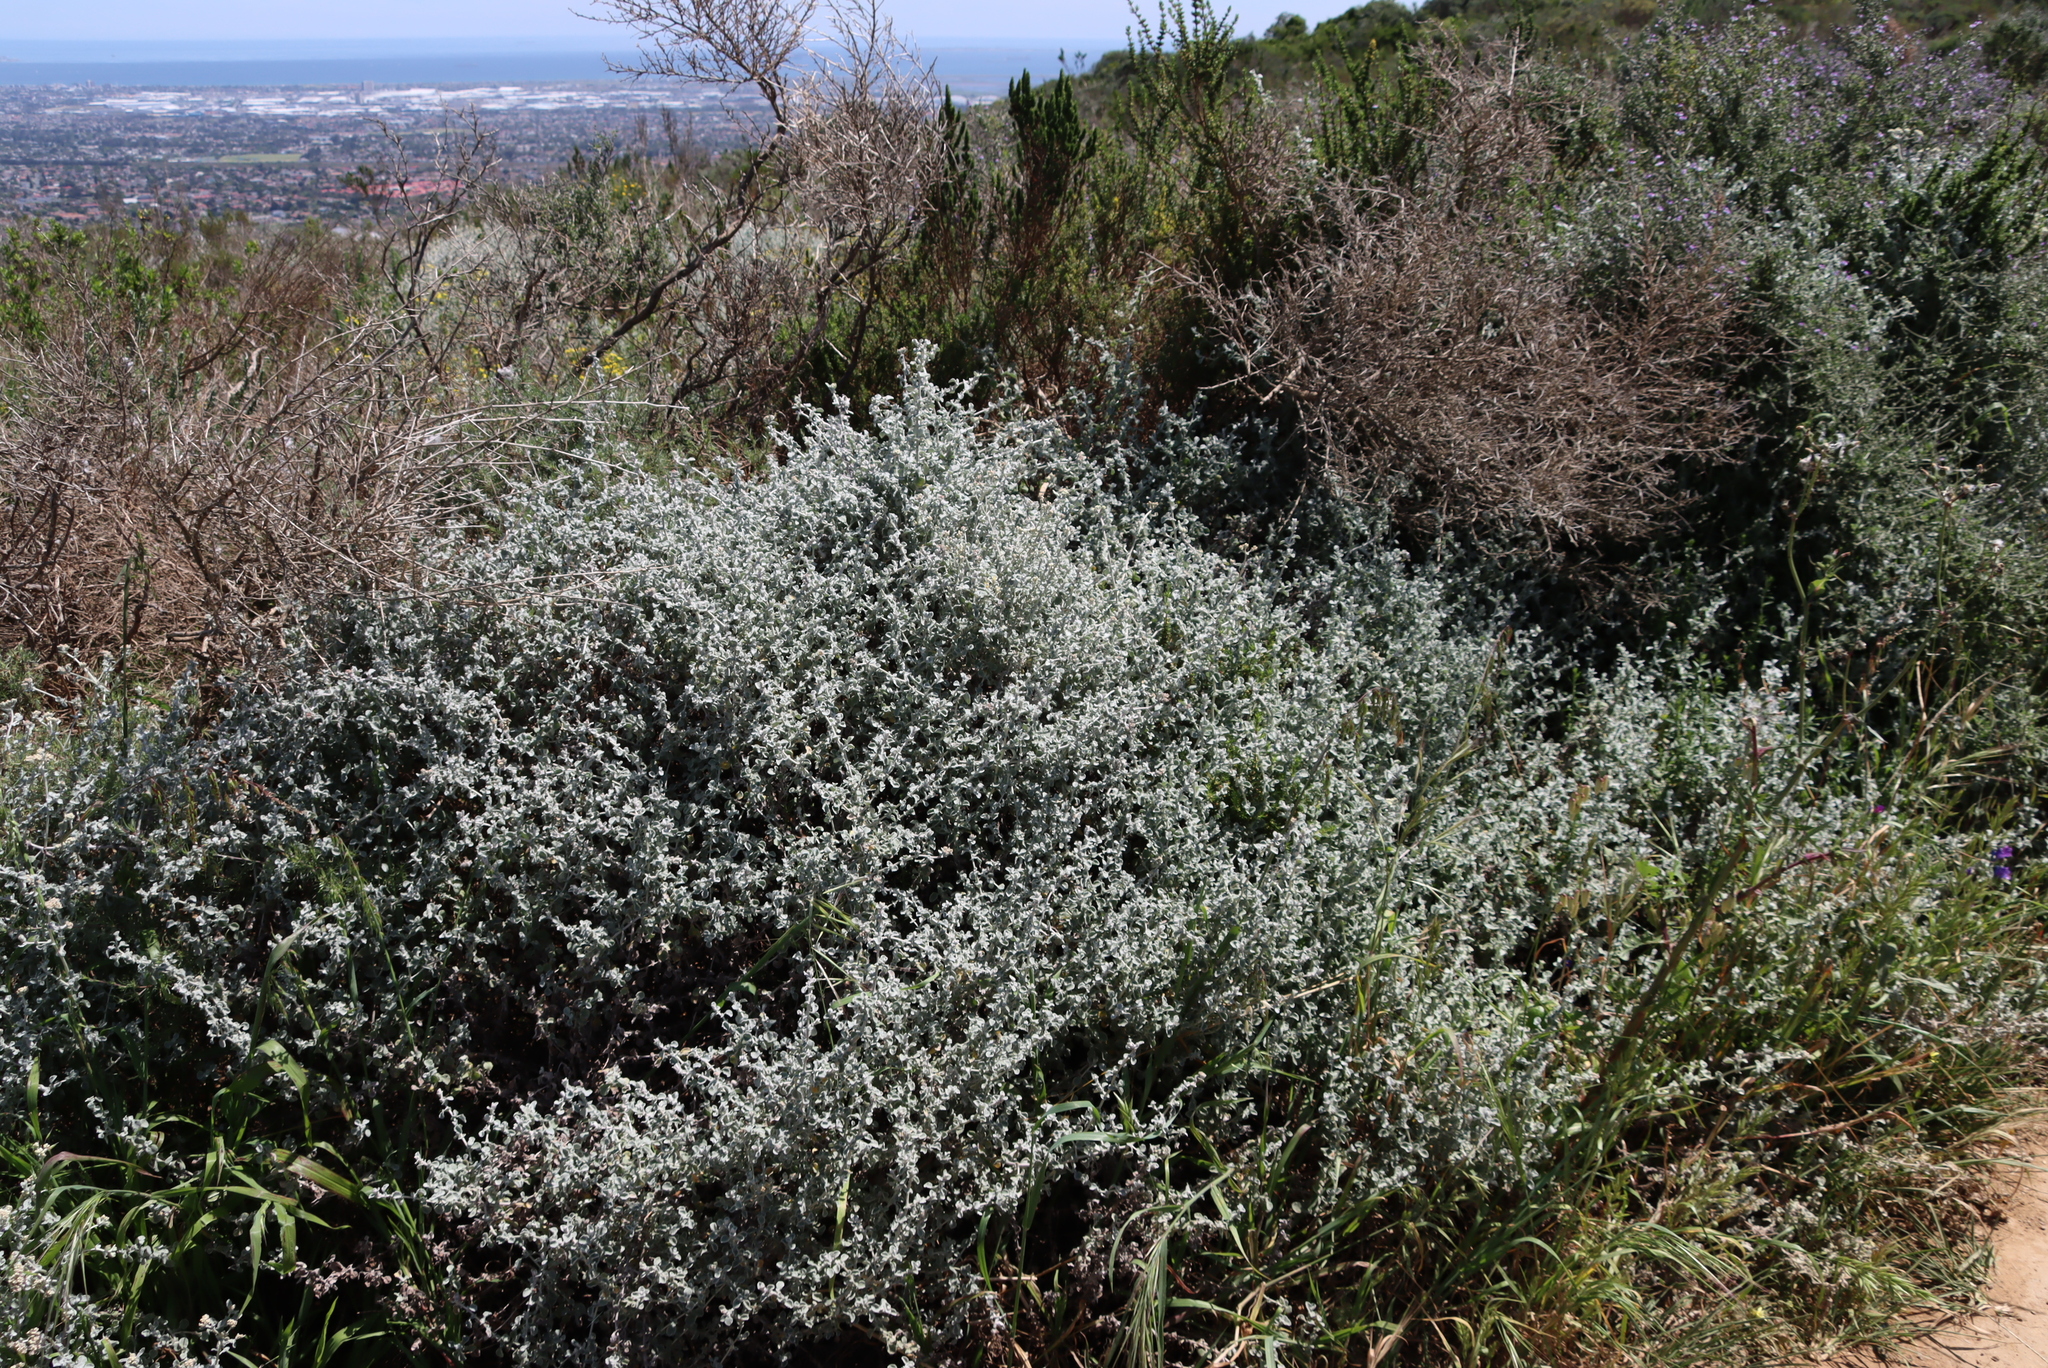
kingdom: Plantae
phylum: Tracheophyta
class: Magnoliopsida
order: Asterales
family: Asteraceae
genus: Seriphium
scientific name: Seriphium plumosum
